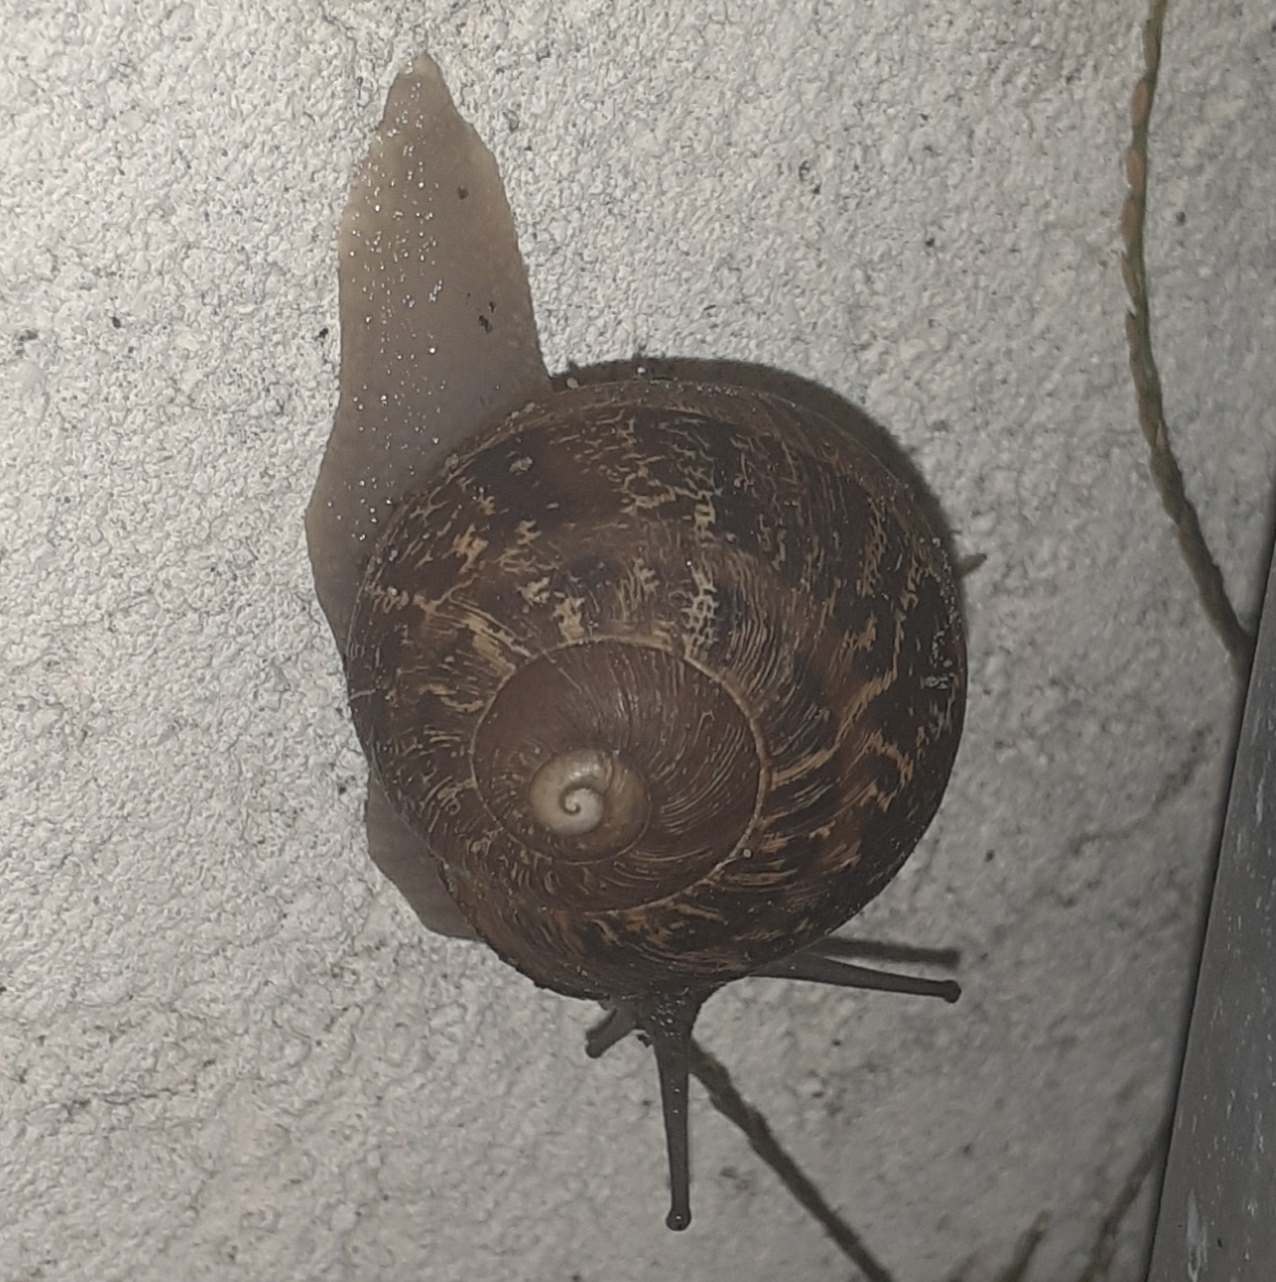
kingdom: Animalia
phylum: Mollusca
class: Gastropoda
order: Stylommatophora
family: Helicidae
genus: Cornu
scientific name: Cornu aspersum
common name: Brown garden snail
